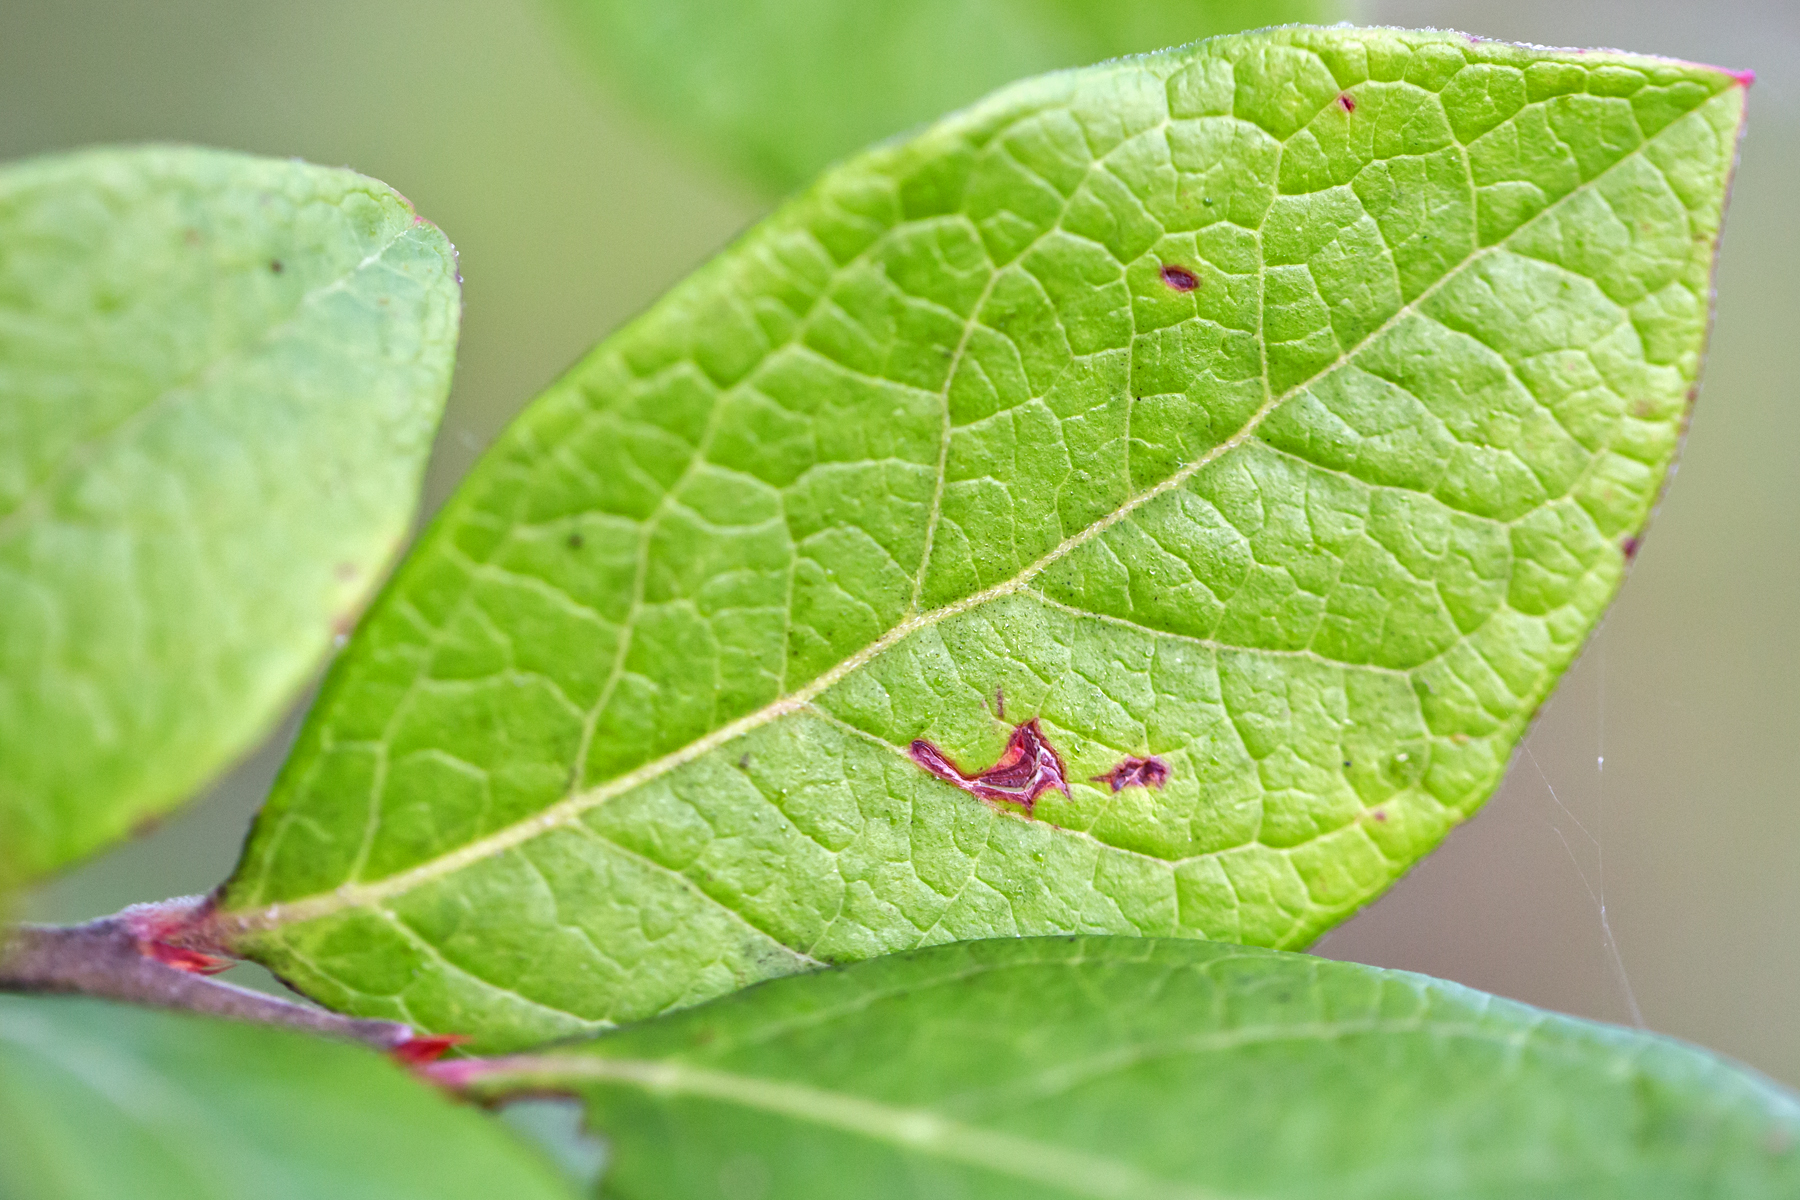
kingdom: Plantae
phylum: Tracheophyta
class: Magnoliopsida
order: Ericales
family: Ericaceae
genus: Vaccinium
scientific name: Vaccinium corymbosum
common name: Blueberry
